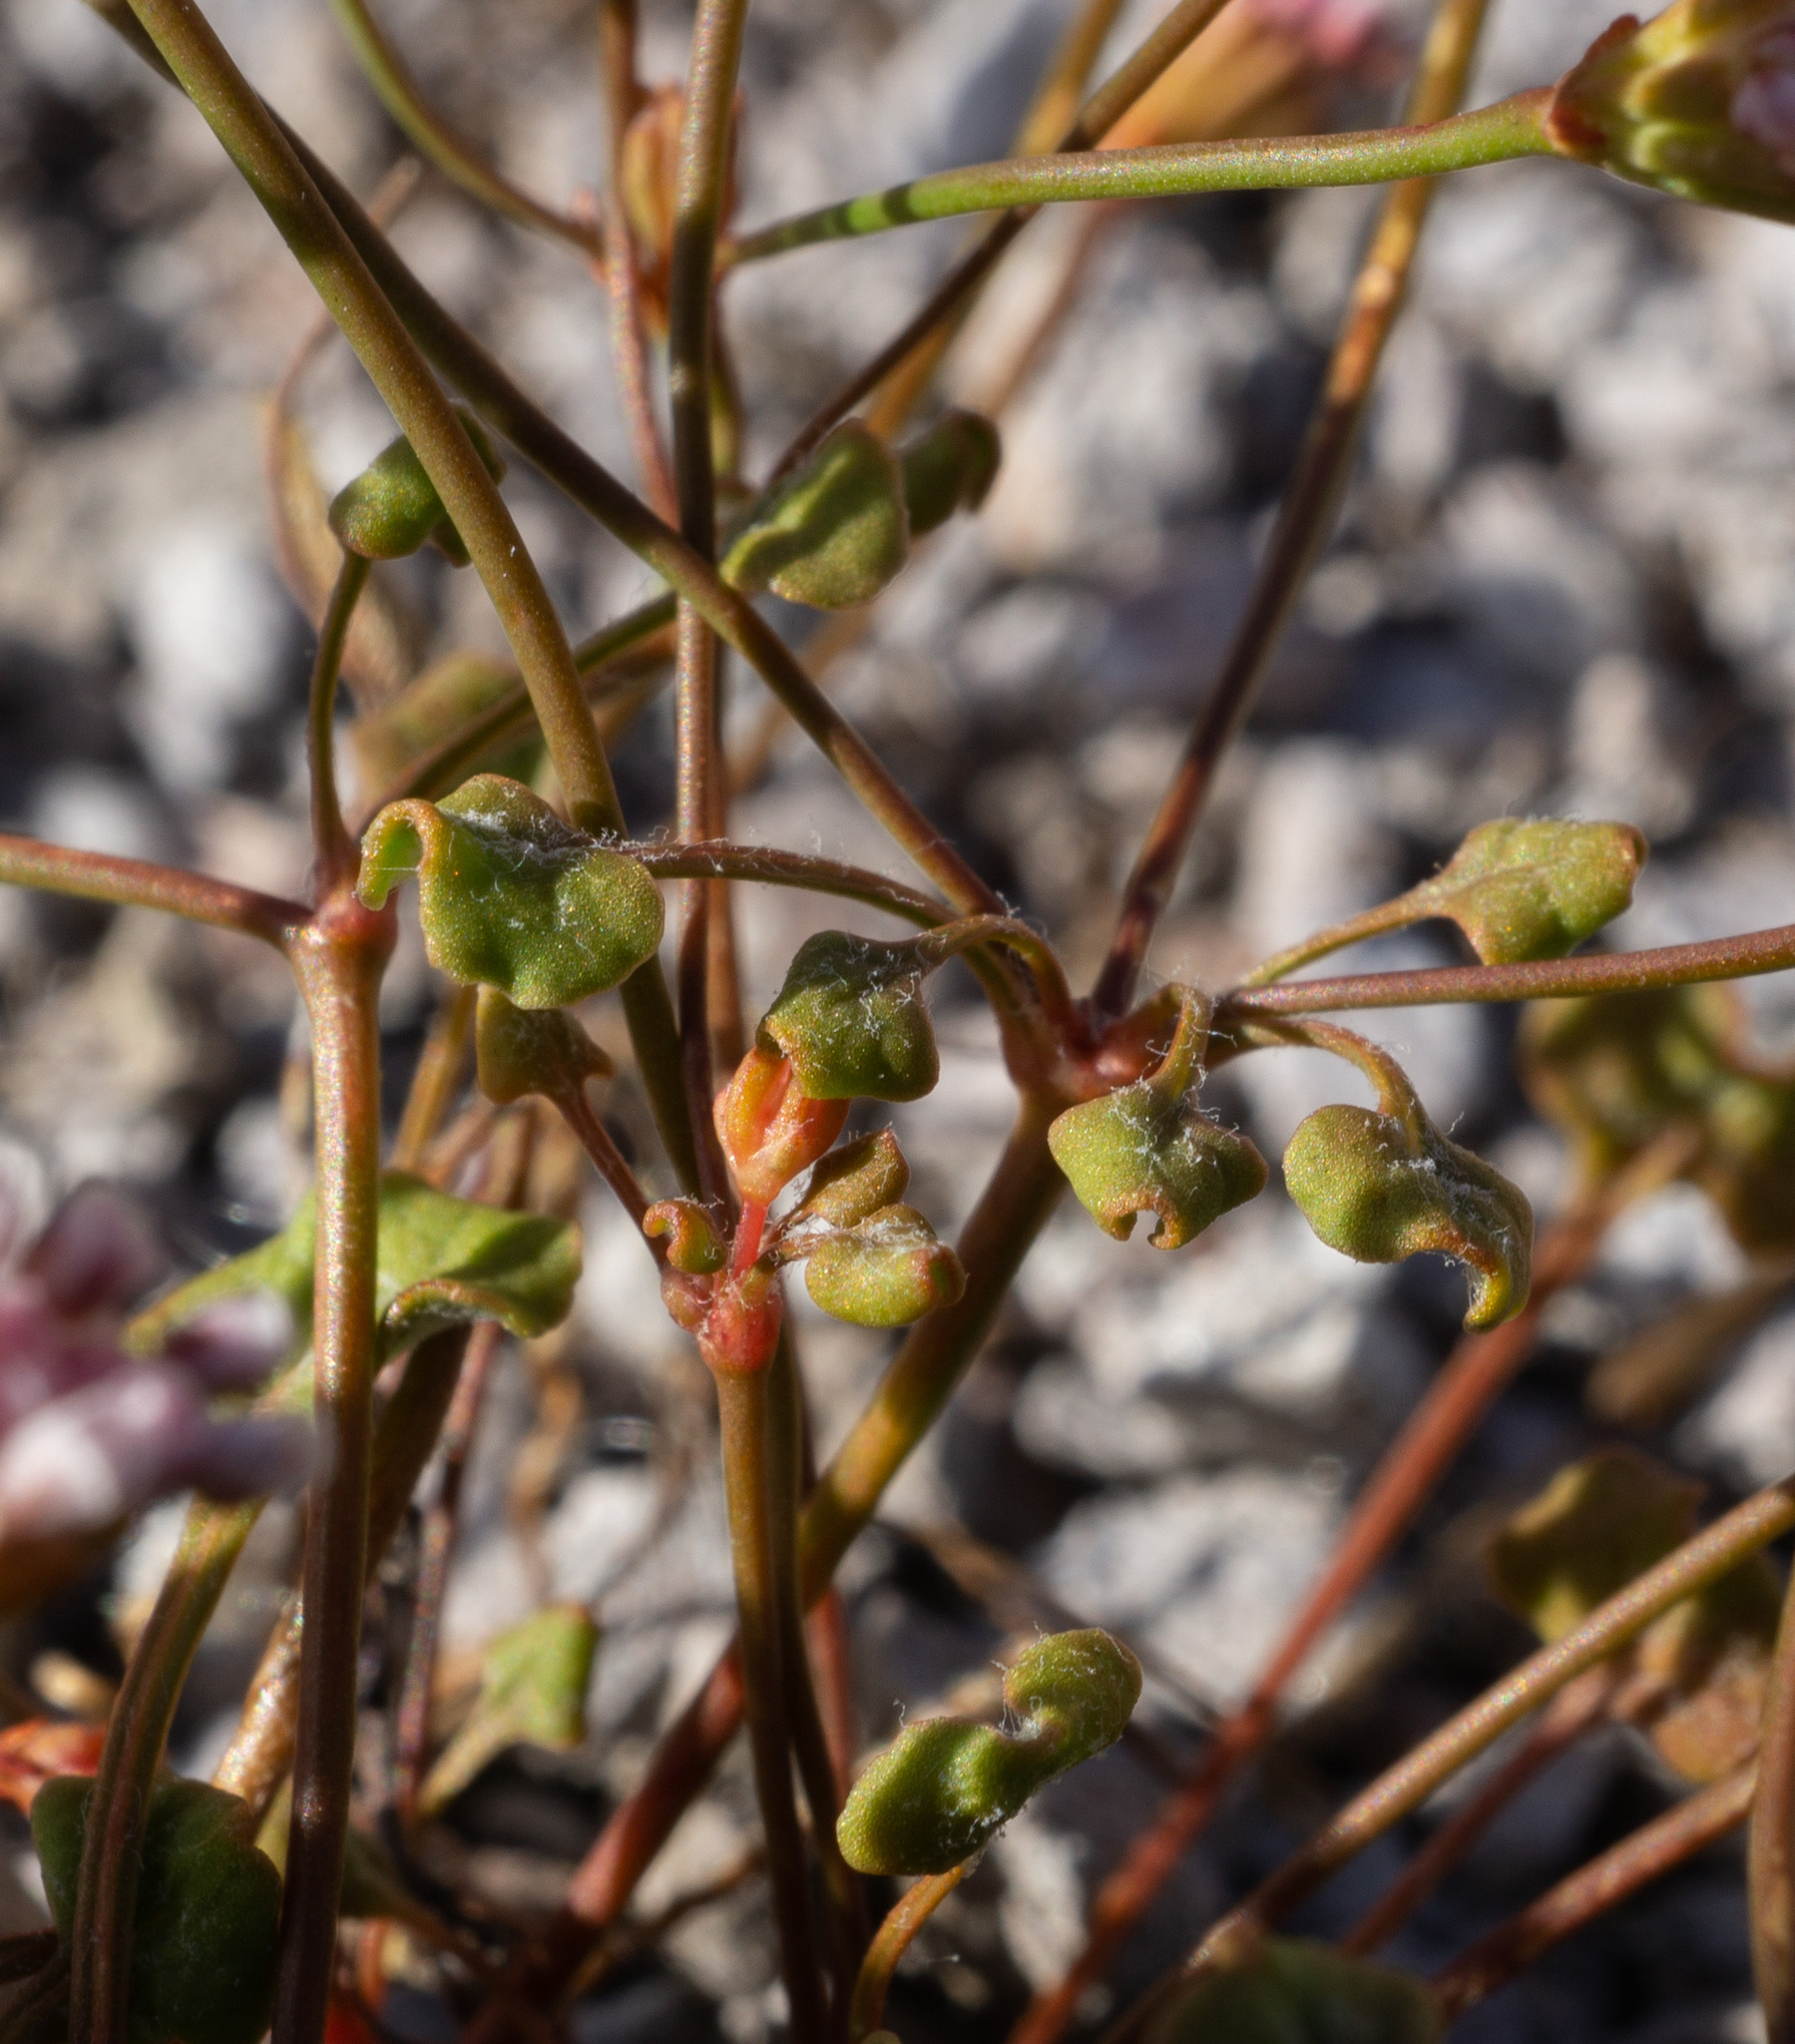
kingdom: Plantae
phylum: Tracheophyta
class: Magnoliopsida
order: Caryophyllales
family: Polygonaceae
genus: Eriogonum
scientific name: Eriogonum nortonii
